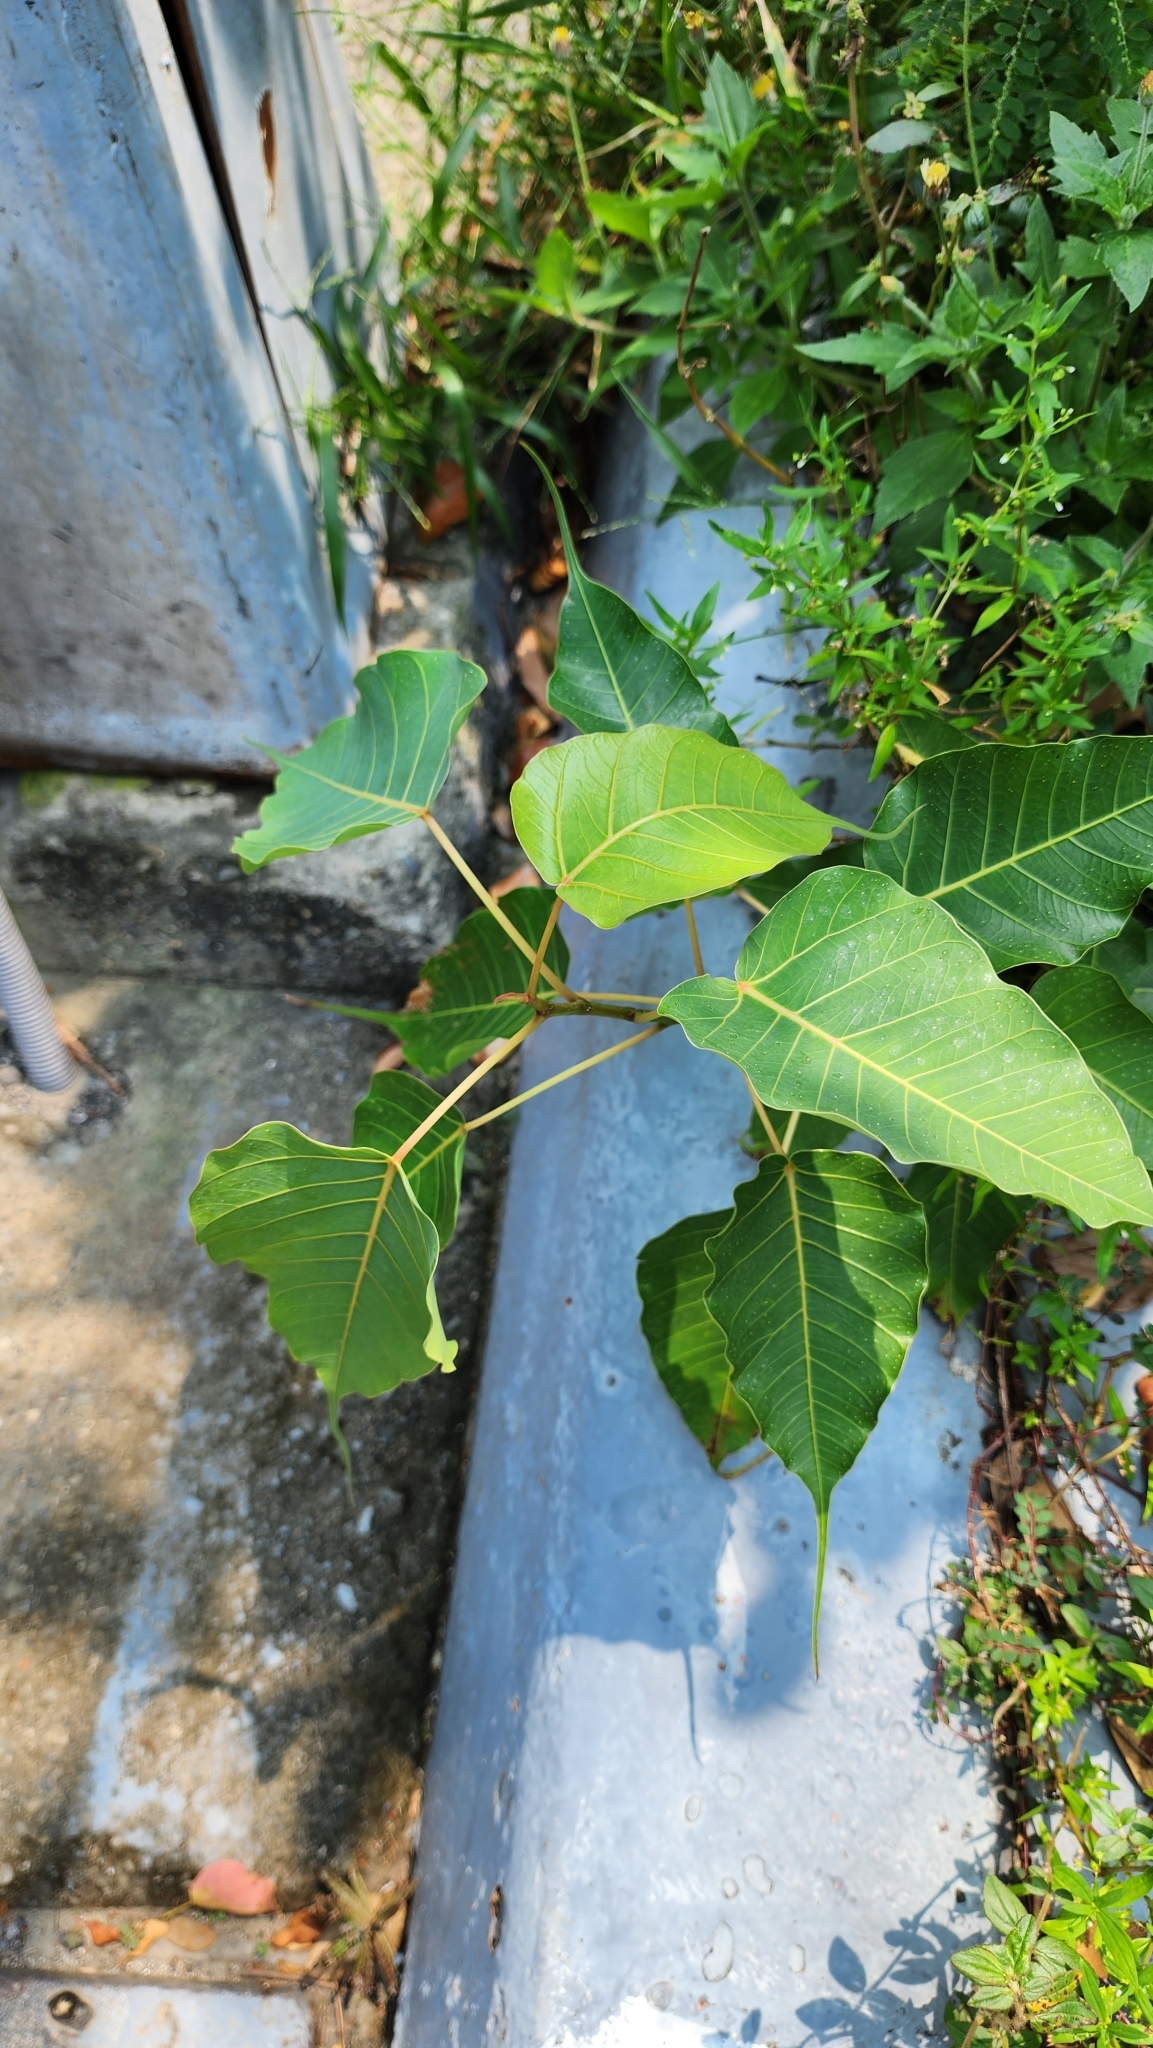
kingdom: Plantae
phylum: Tracheophyta
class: Magnoliopsida
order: Rosales
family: Moraceae
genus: Ficus
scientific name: Ficus religiosa
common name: Bodhi tree
